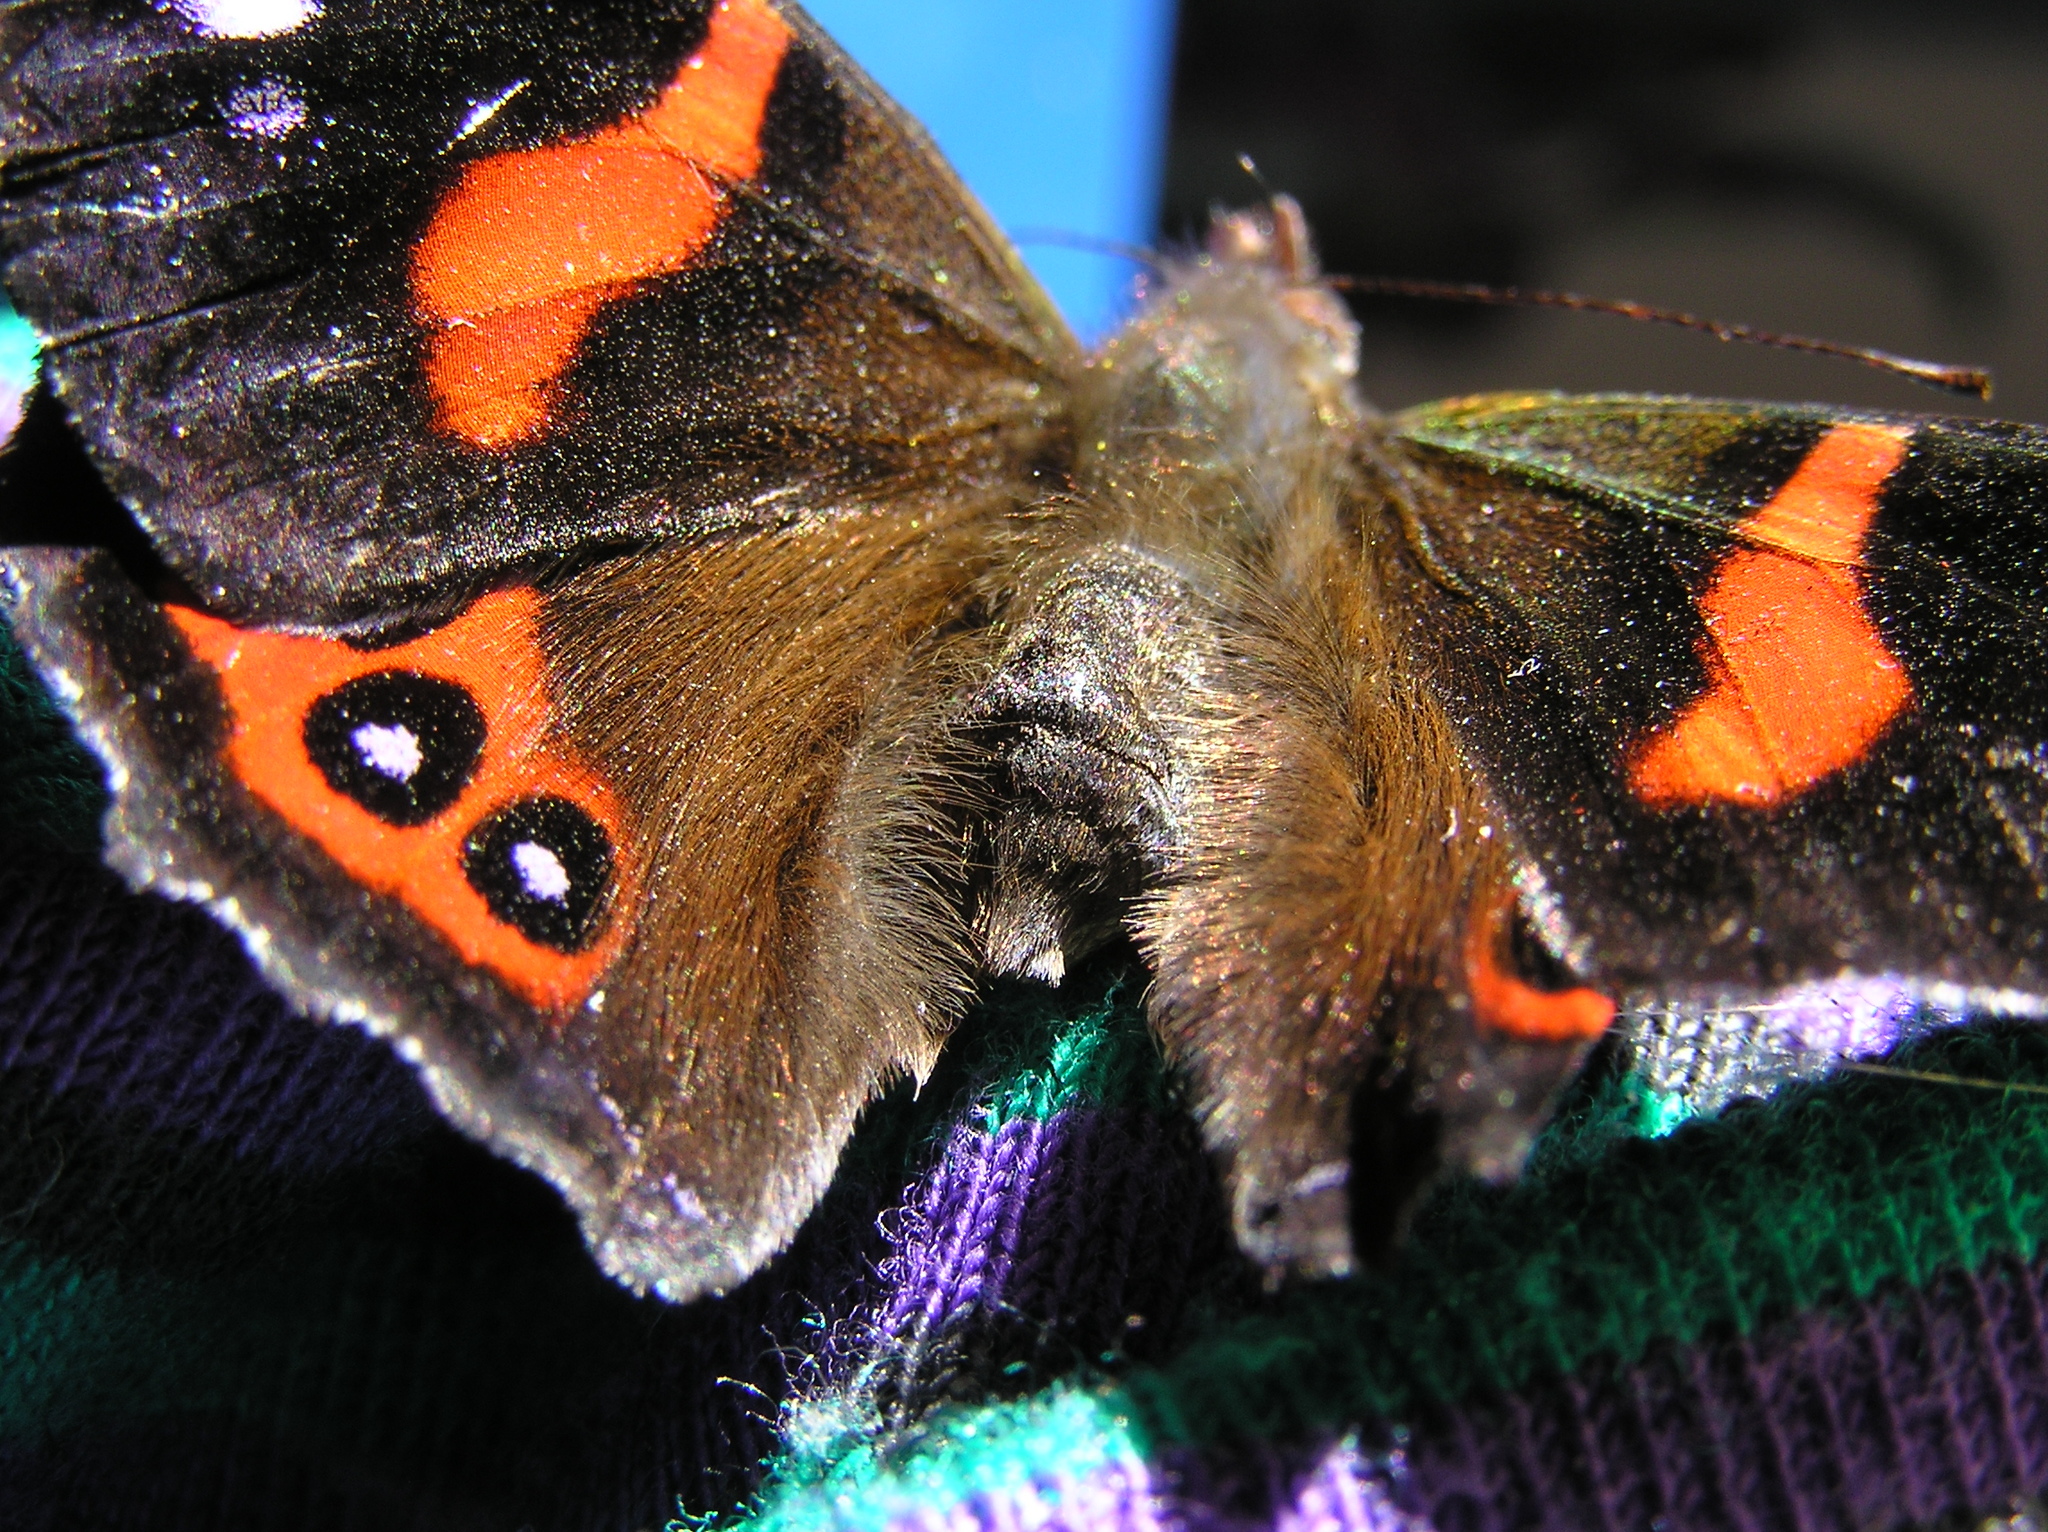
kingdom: Animalia
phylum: Arthropoda
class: Insecta
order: Lepidoptera
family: Nymphalidae
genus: Vanessa
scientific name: Vanessa gonerilla
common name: New zealand red admiral
